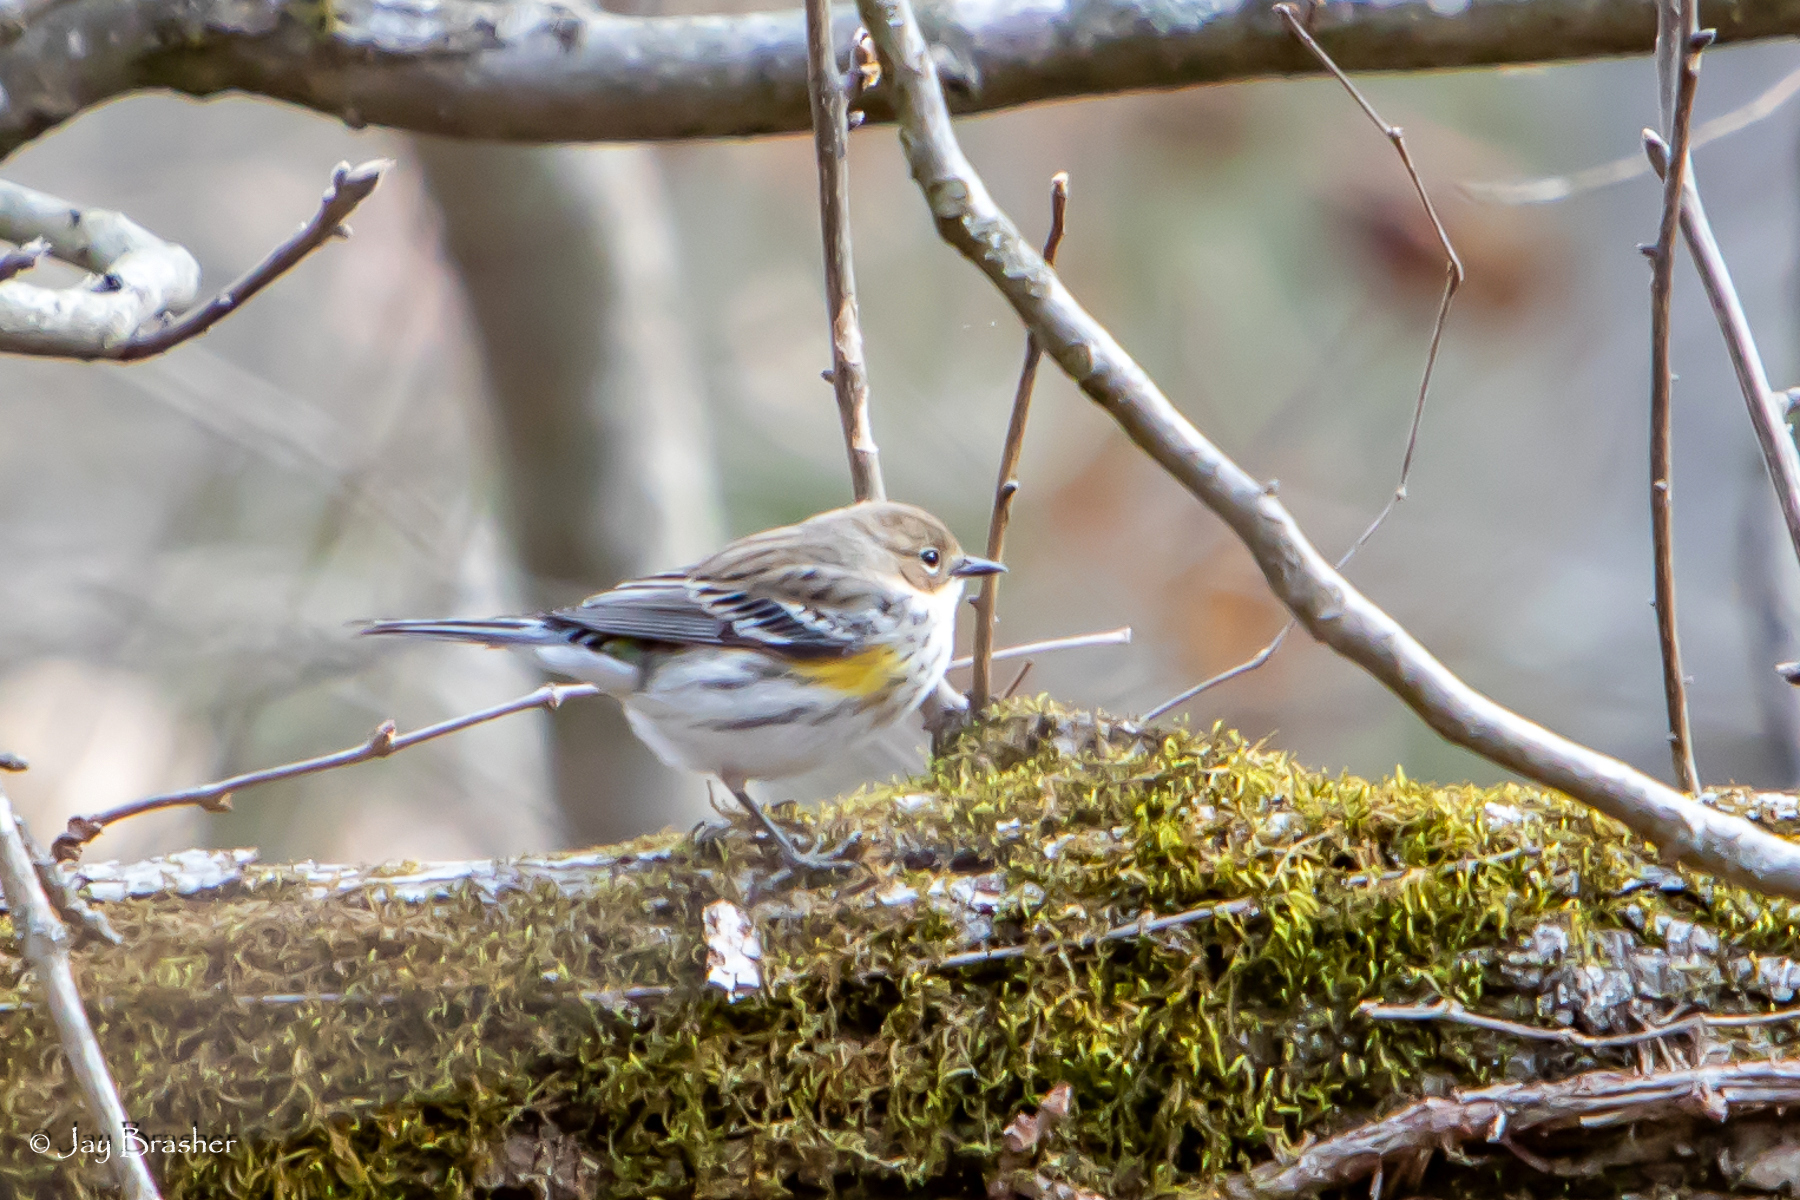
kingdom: Animalia
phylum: Chordata
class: Aves
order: Passeriformes
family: Parulidae
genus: Setophaga
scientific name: Setophaga coronata
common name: Myrtle warbler
